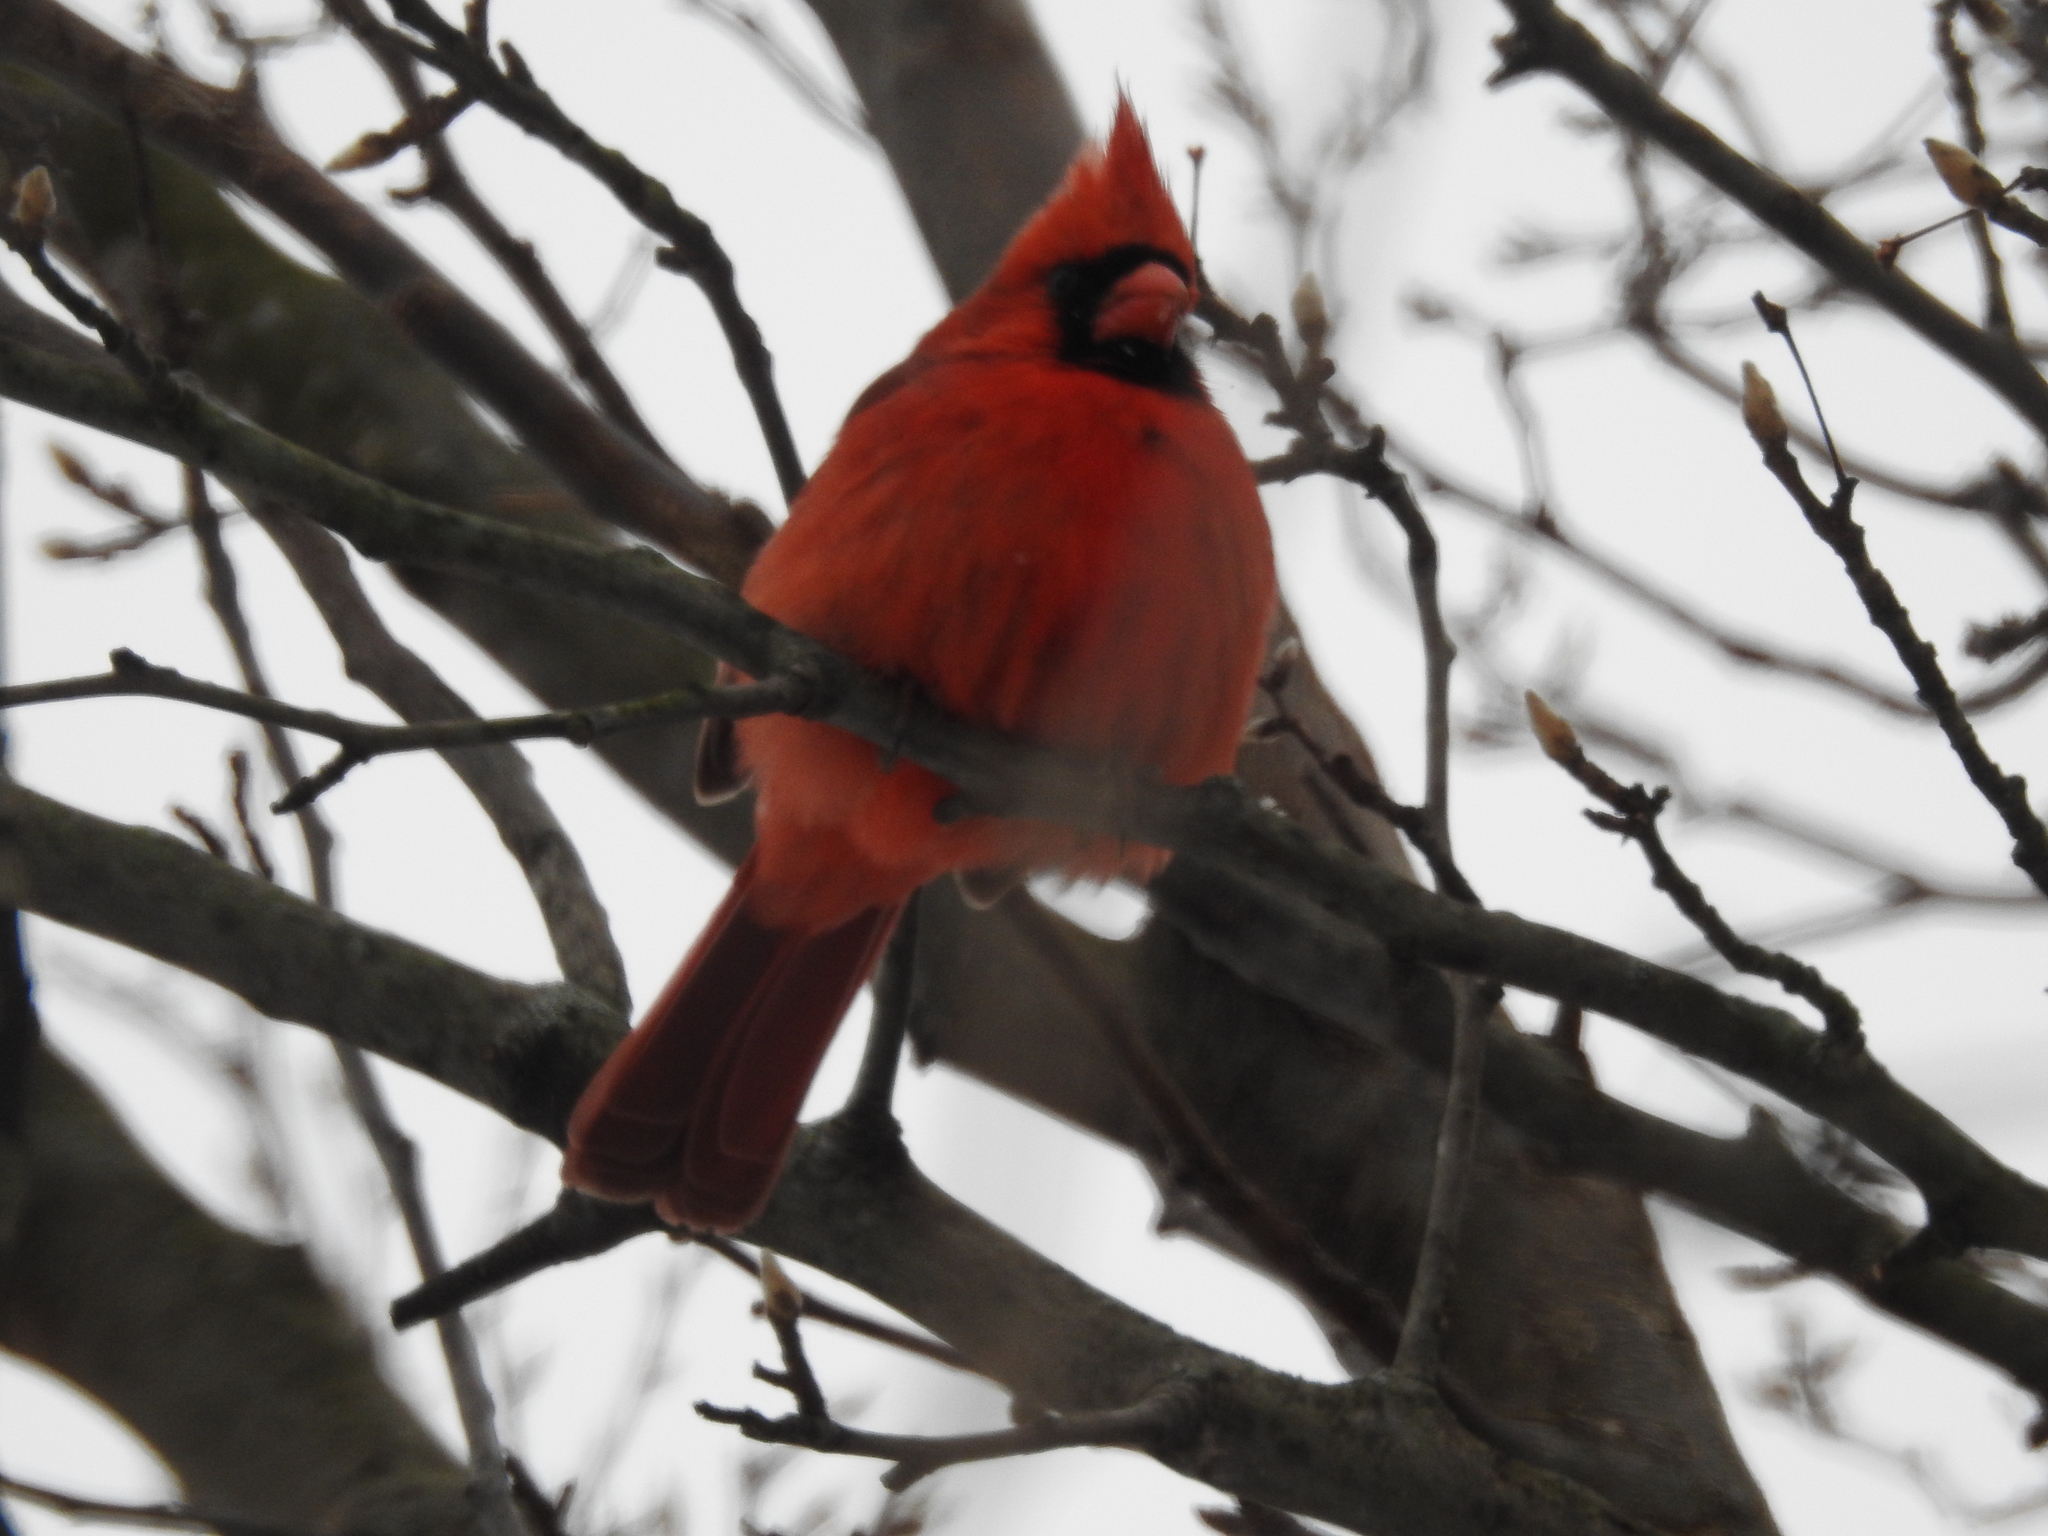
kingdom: Animalia
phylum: Chordata
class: Aves
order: Passeriformes
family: Cardinalidae
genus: Cardinalis
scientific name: Cardinalis cardinalis
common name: Northern cardinal
